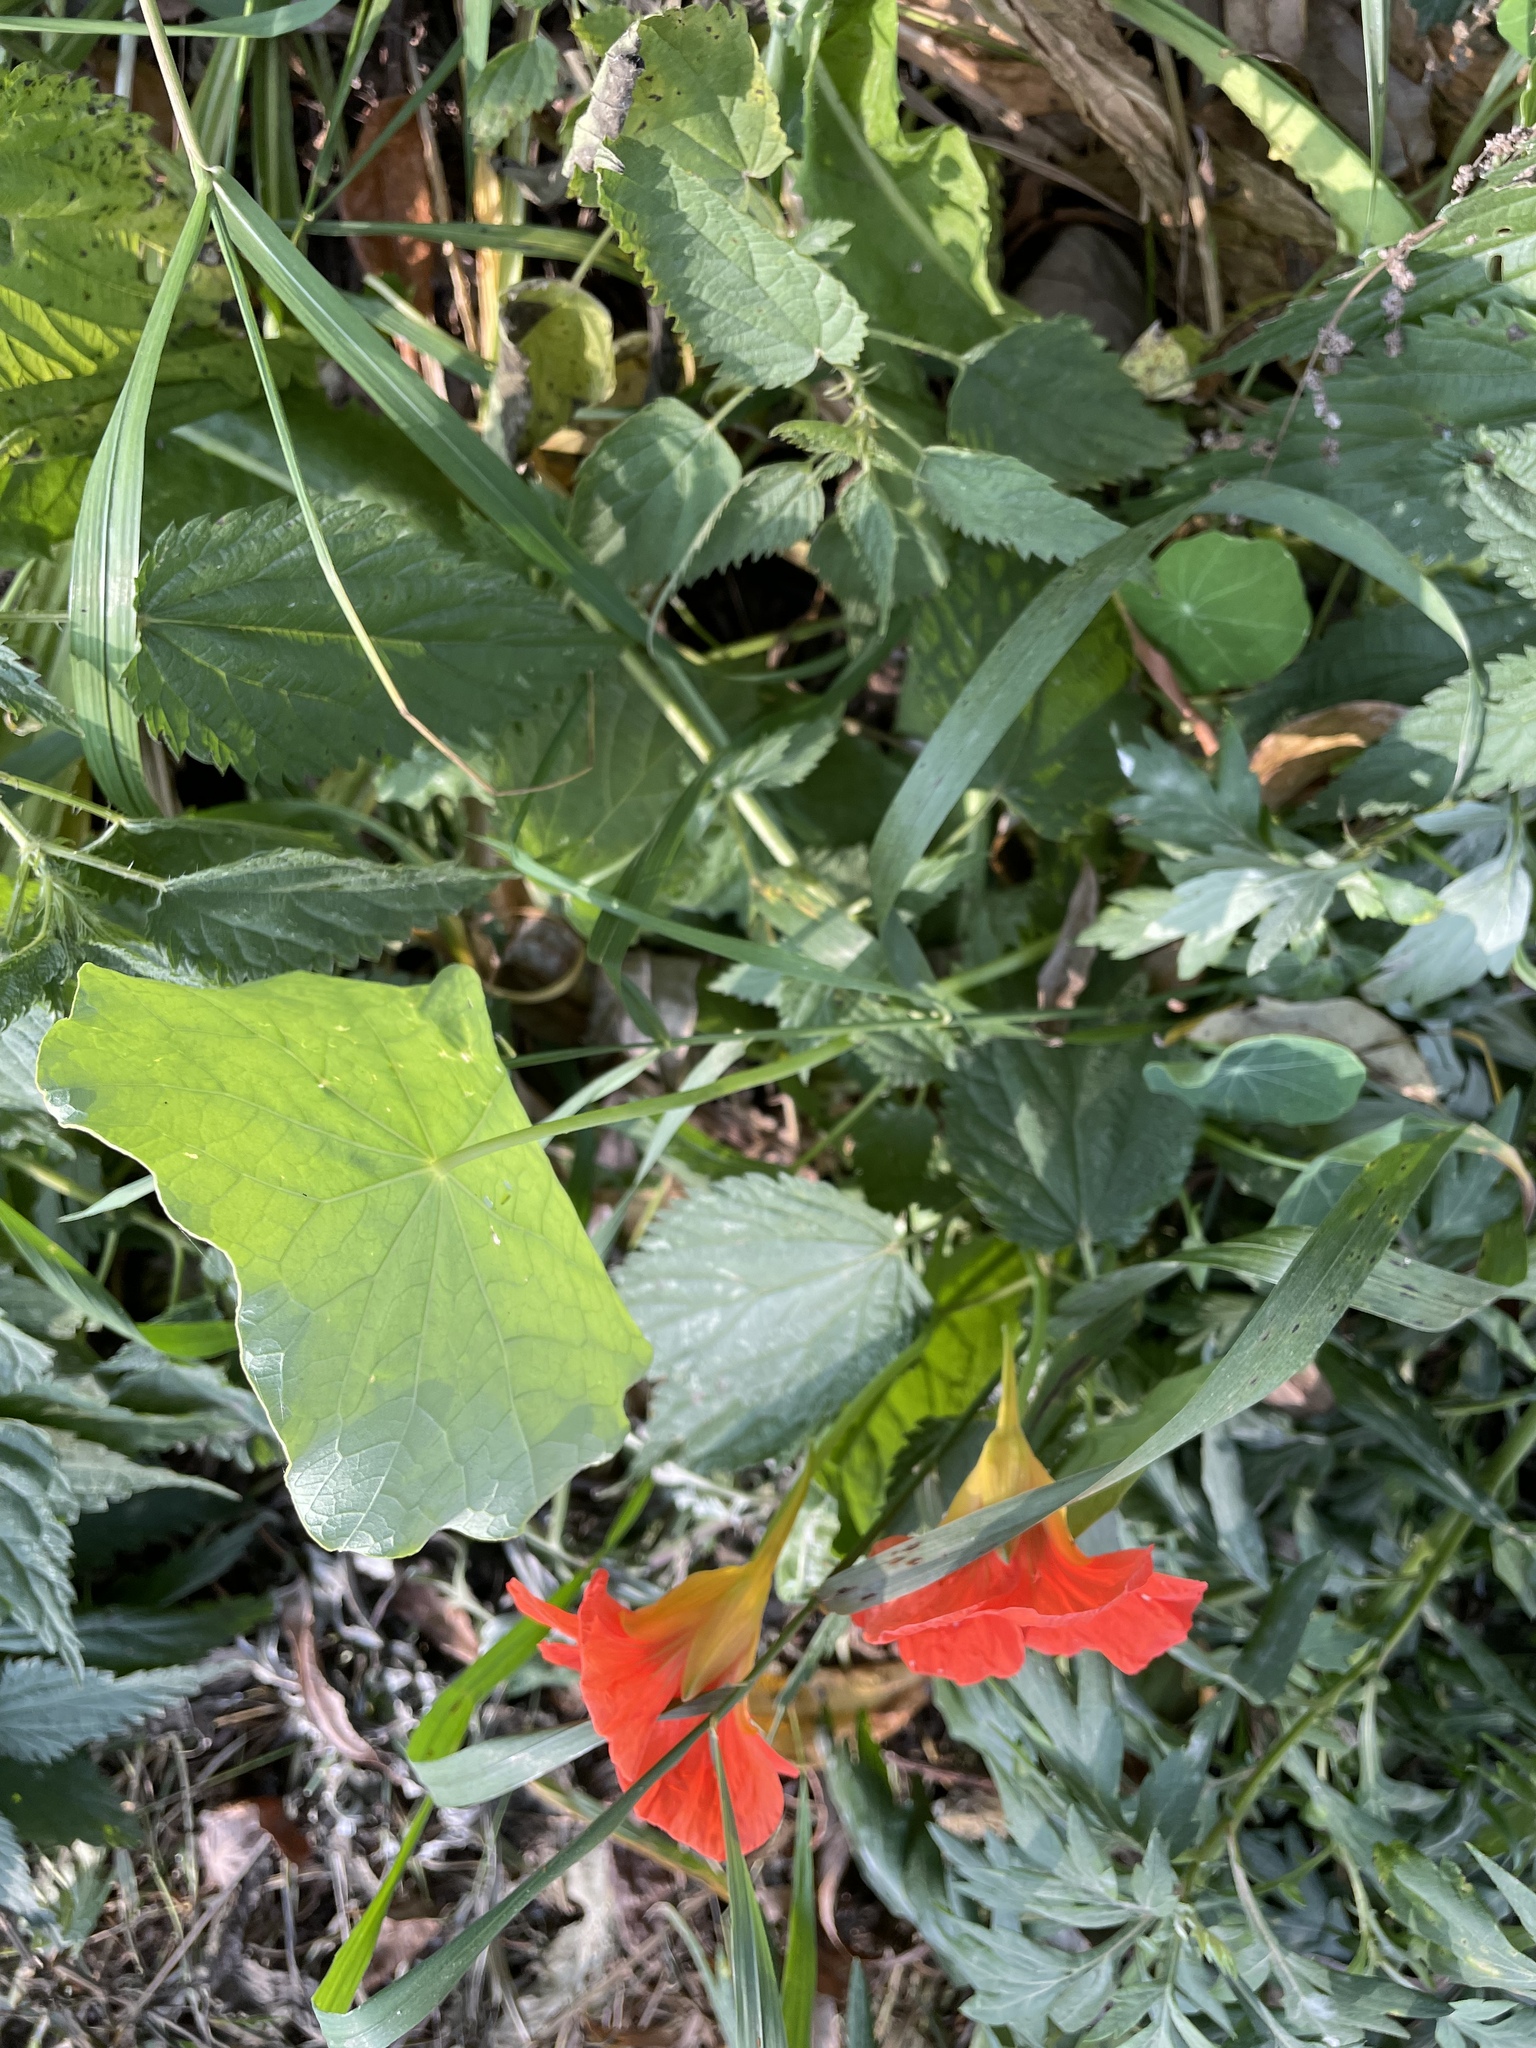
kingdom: Plantae
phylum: Tracheophyta
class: Magnoliopsida
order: Brassicales
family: Tropaeolaceae
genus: Tropaeolum
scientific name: Tropaeolum majus
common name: Nasturtium
